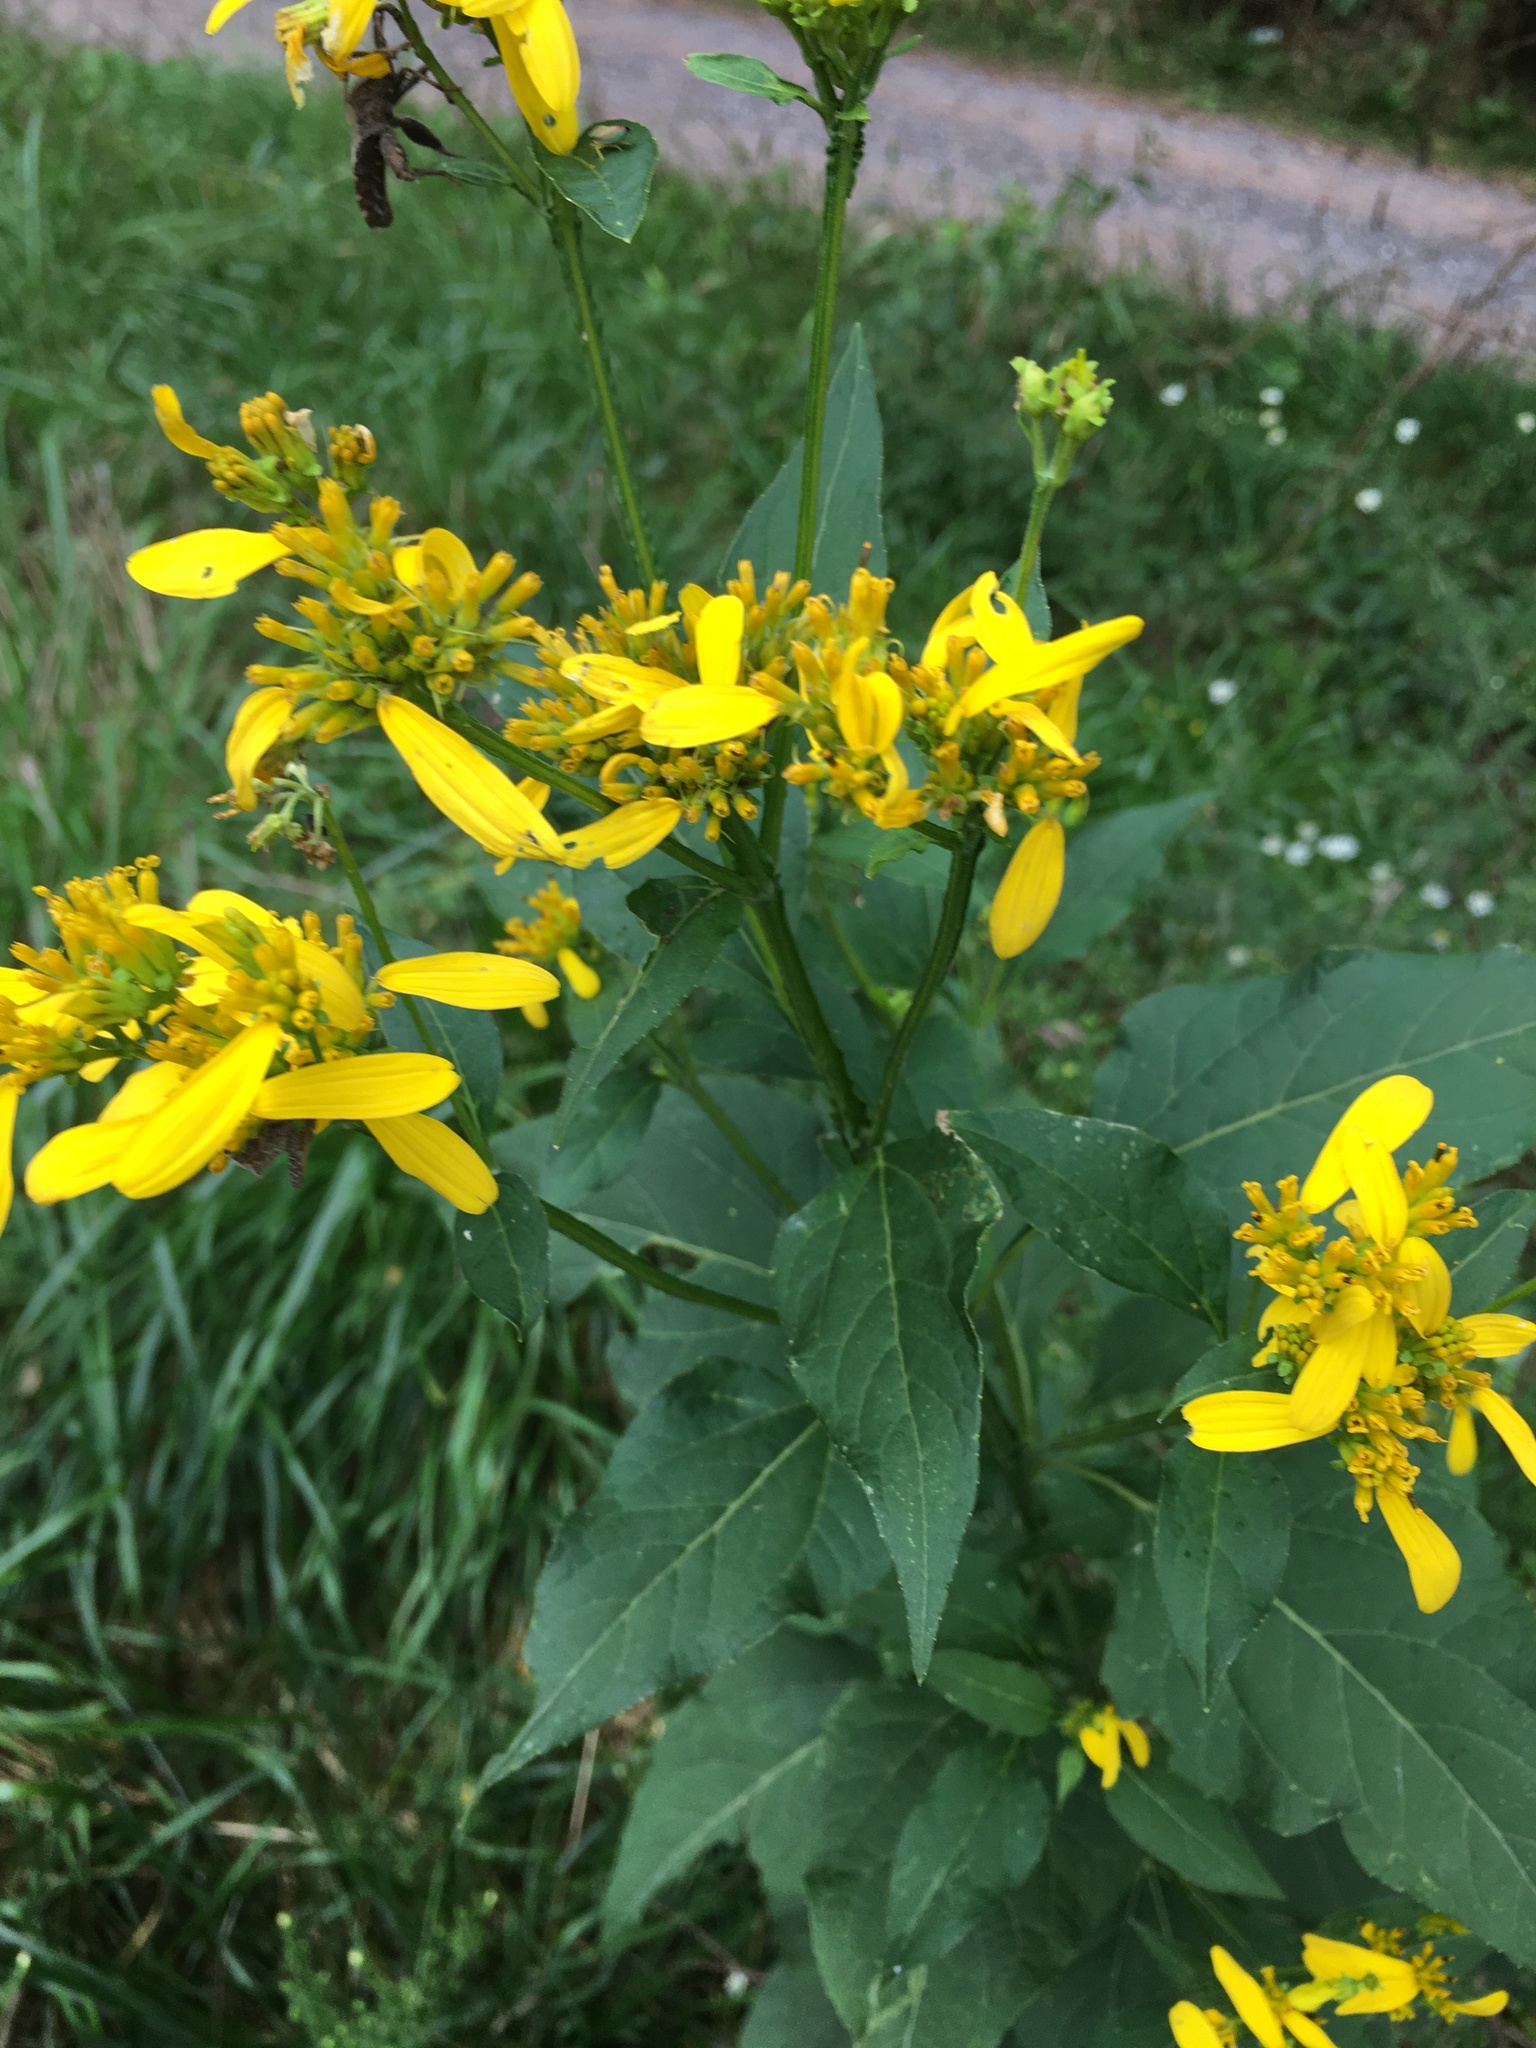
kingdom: Plantae
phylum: Tracheophyta
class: Magnoliopsida
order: Asterales
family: Asteraceae
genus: Verbesina
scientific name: Verbesina occidentalis
